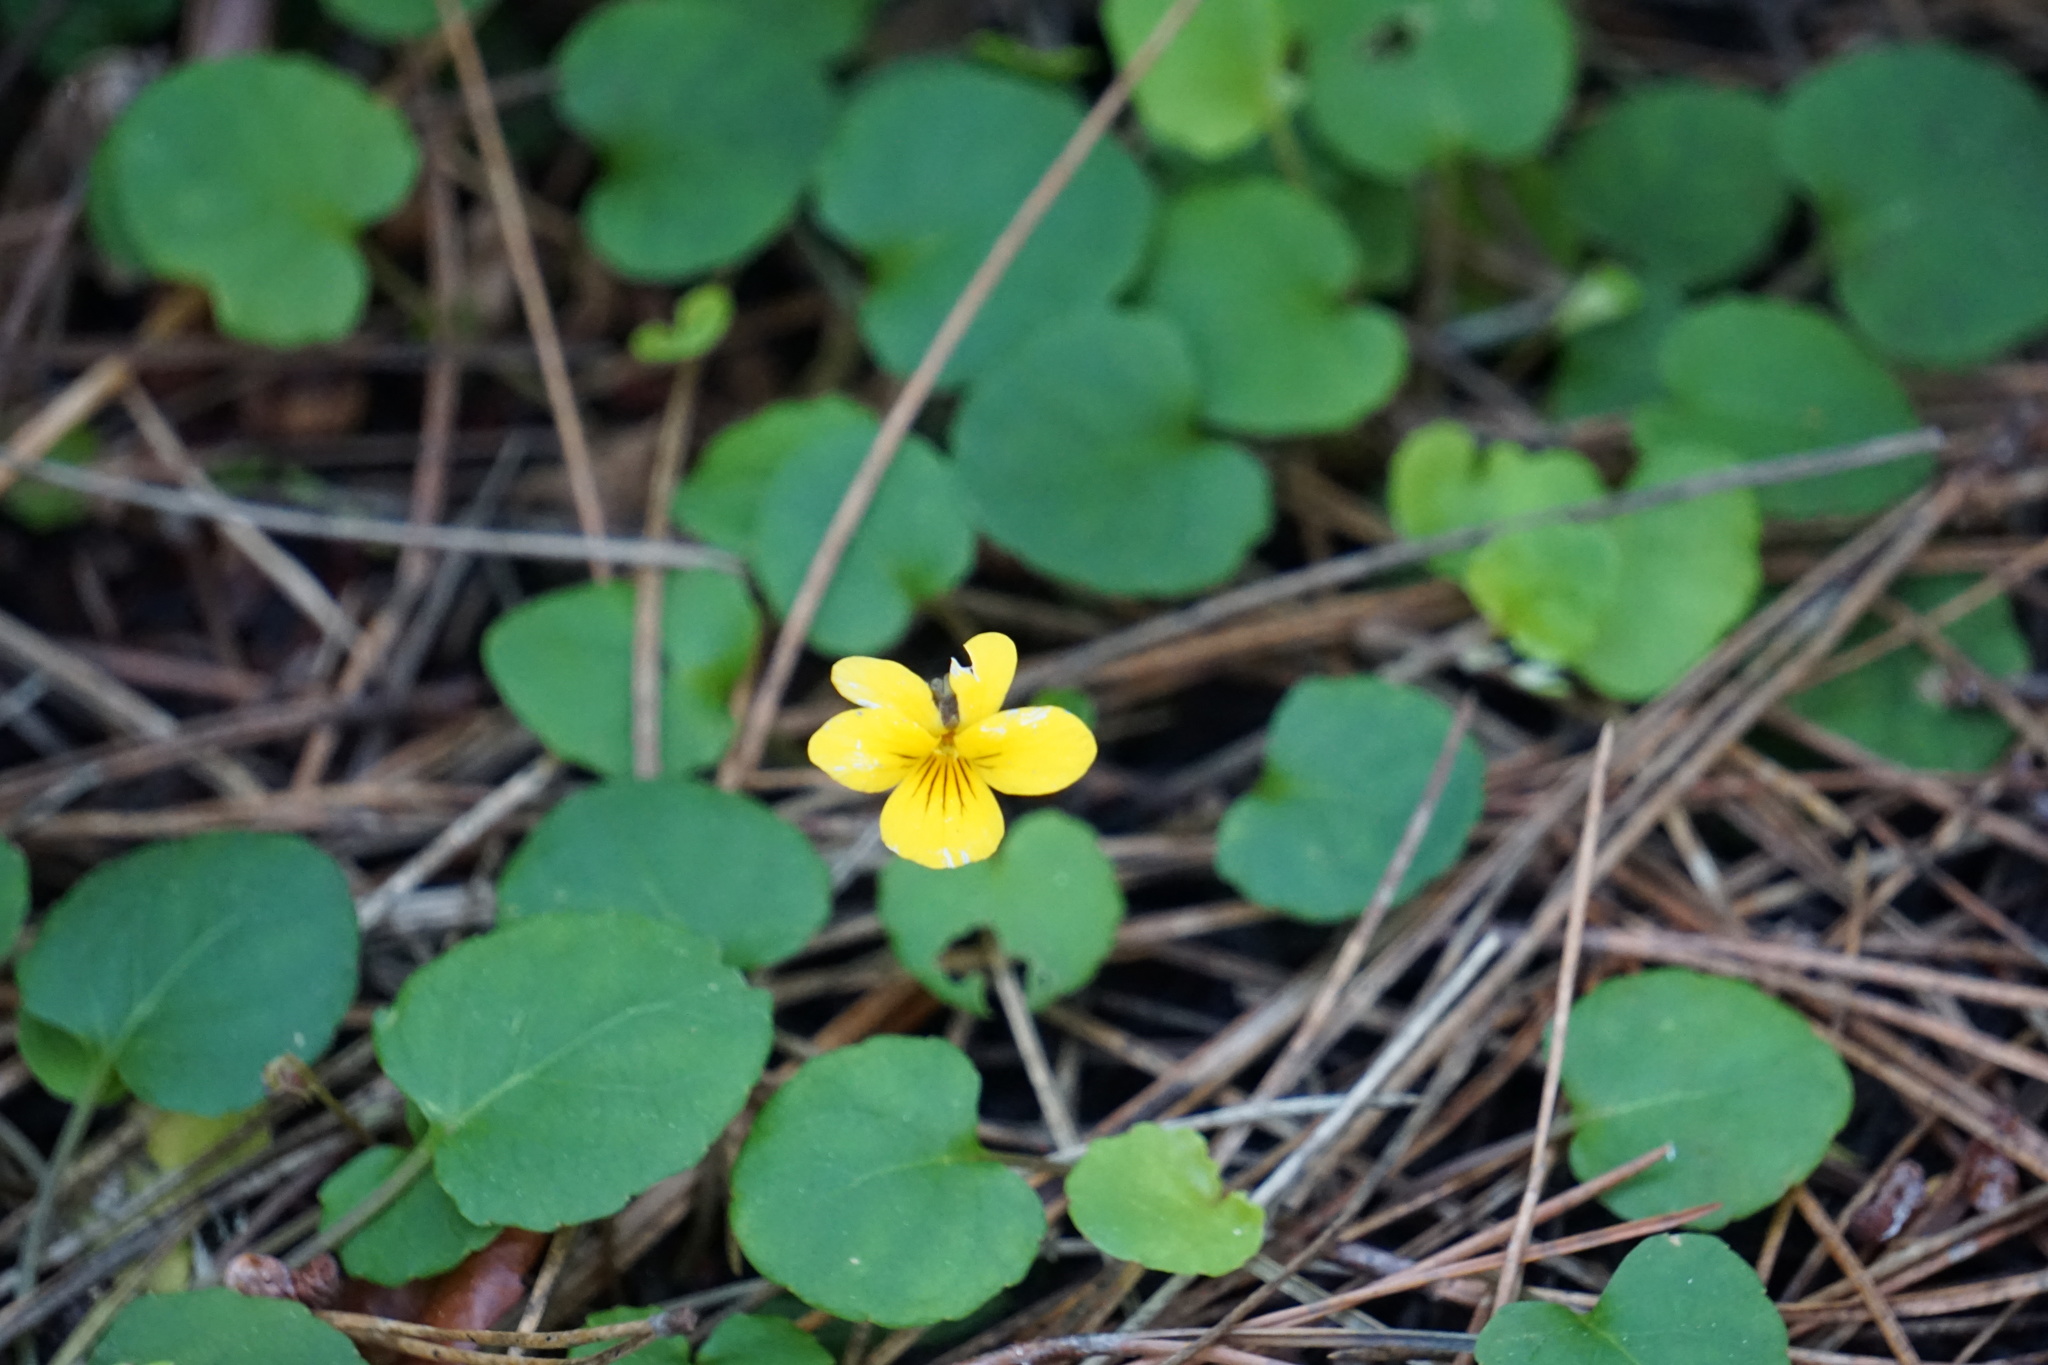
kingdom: Plantae
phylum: Tracheophyta
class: Magnoliopsida
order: Malpighiales
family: Violaceae
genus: Viola
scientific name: Viola sempervirens
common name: Evergreen violet
